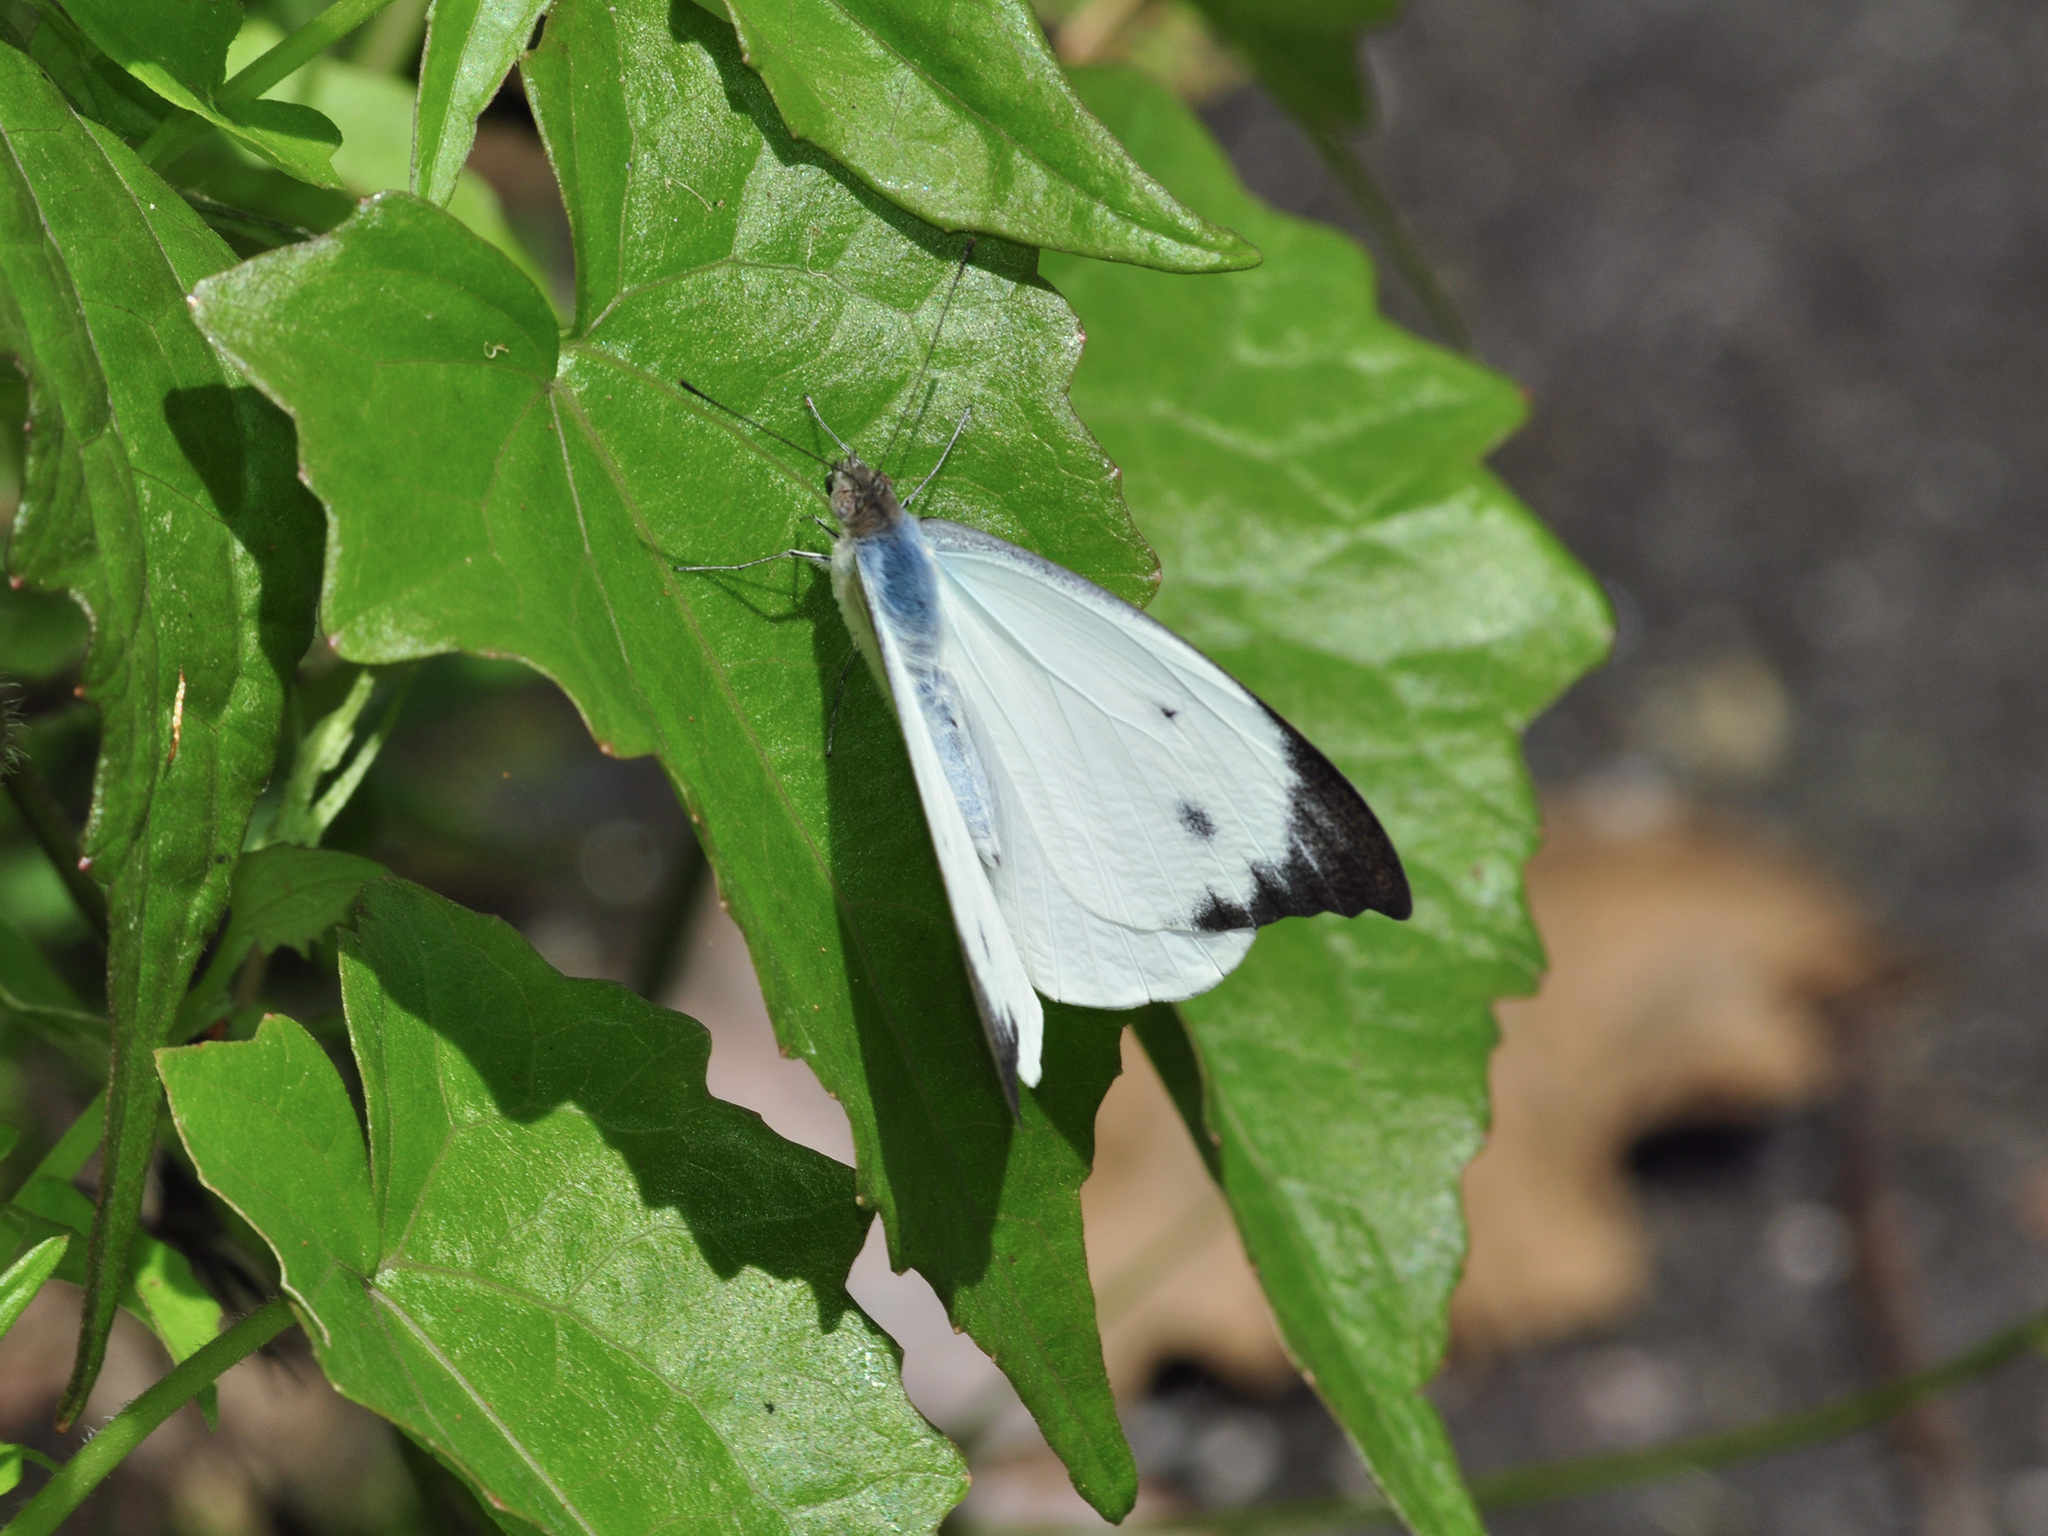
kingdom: Animalia
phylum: Arthropoda
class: Insecta
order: Lepidoptera
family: Pieridae
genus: Appias
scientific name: Appias lalassis
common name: Burmese puffin
